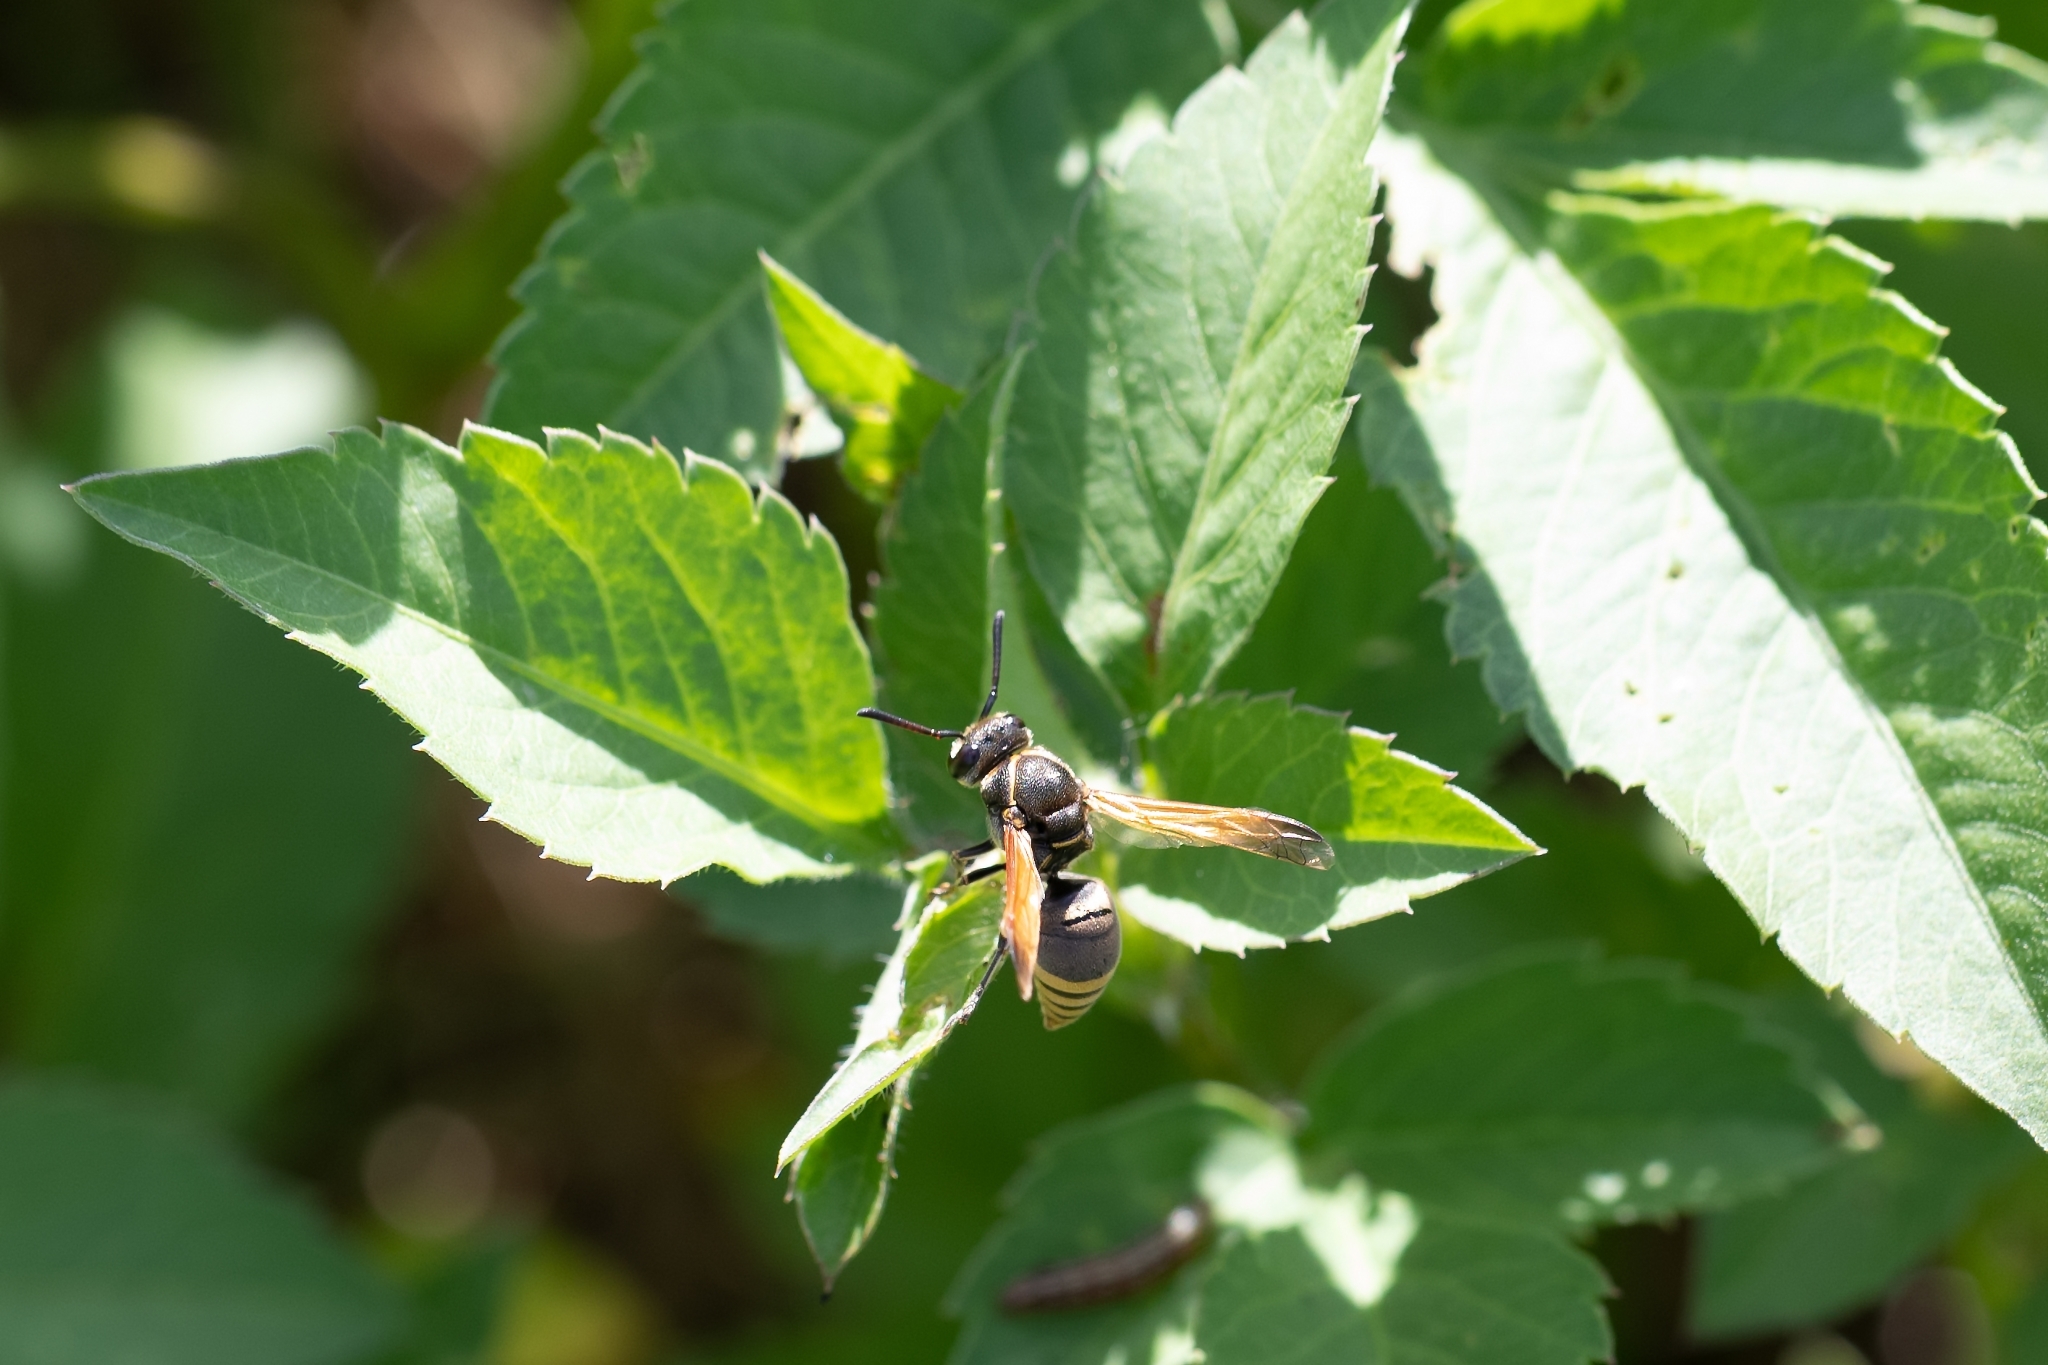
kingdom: Animalia
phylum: Arthropoda
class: Insecta
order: Hymenoptera
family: Eumenidae
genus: Pachodynerus
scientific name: Pachodynerus nasidens
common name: Key hole wasp
